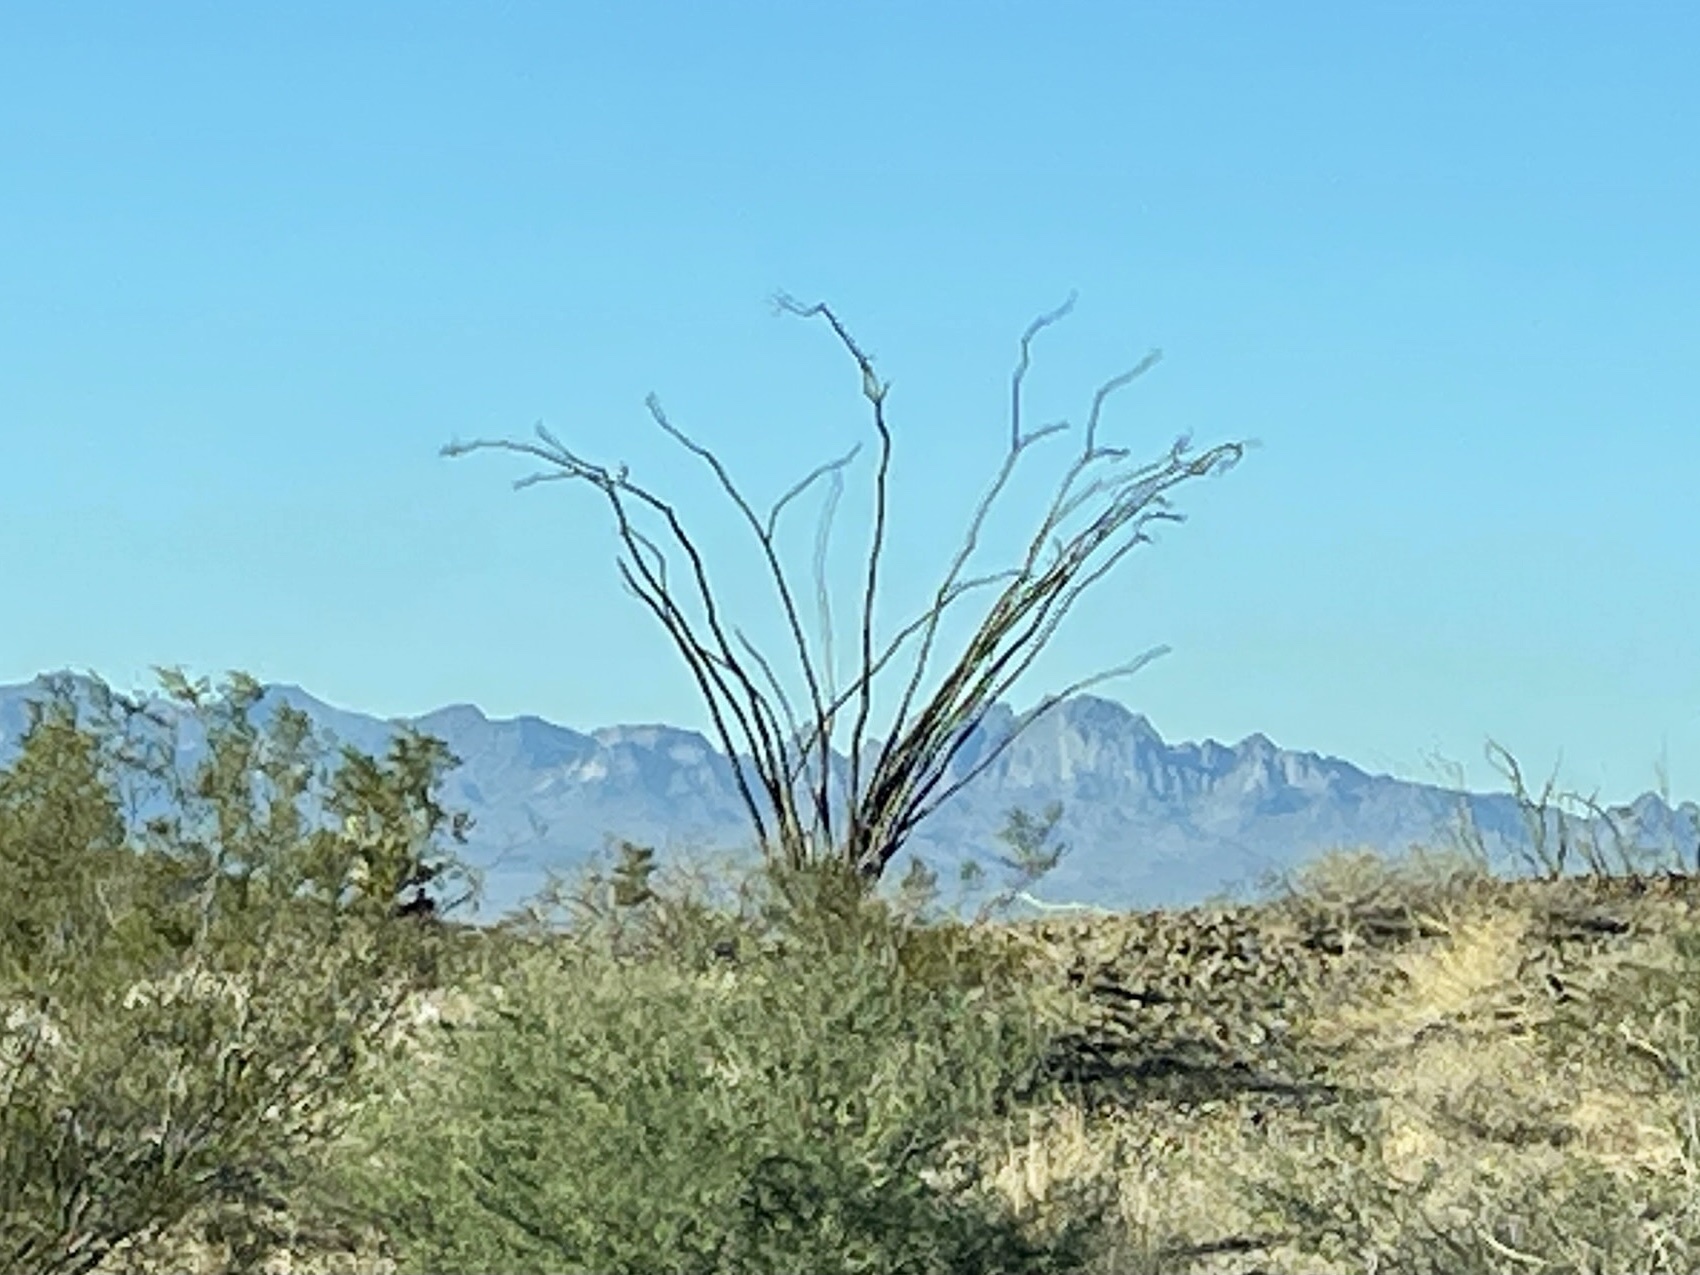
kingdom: Plantae
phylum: Tracheophyta
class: Magnoliopsida
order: Ericales
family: Fouquieriaceae
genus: Fouquieria
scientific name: Fouquieria splendens
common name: Vine-cactus
